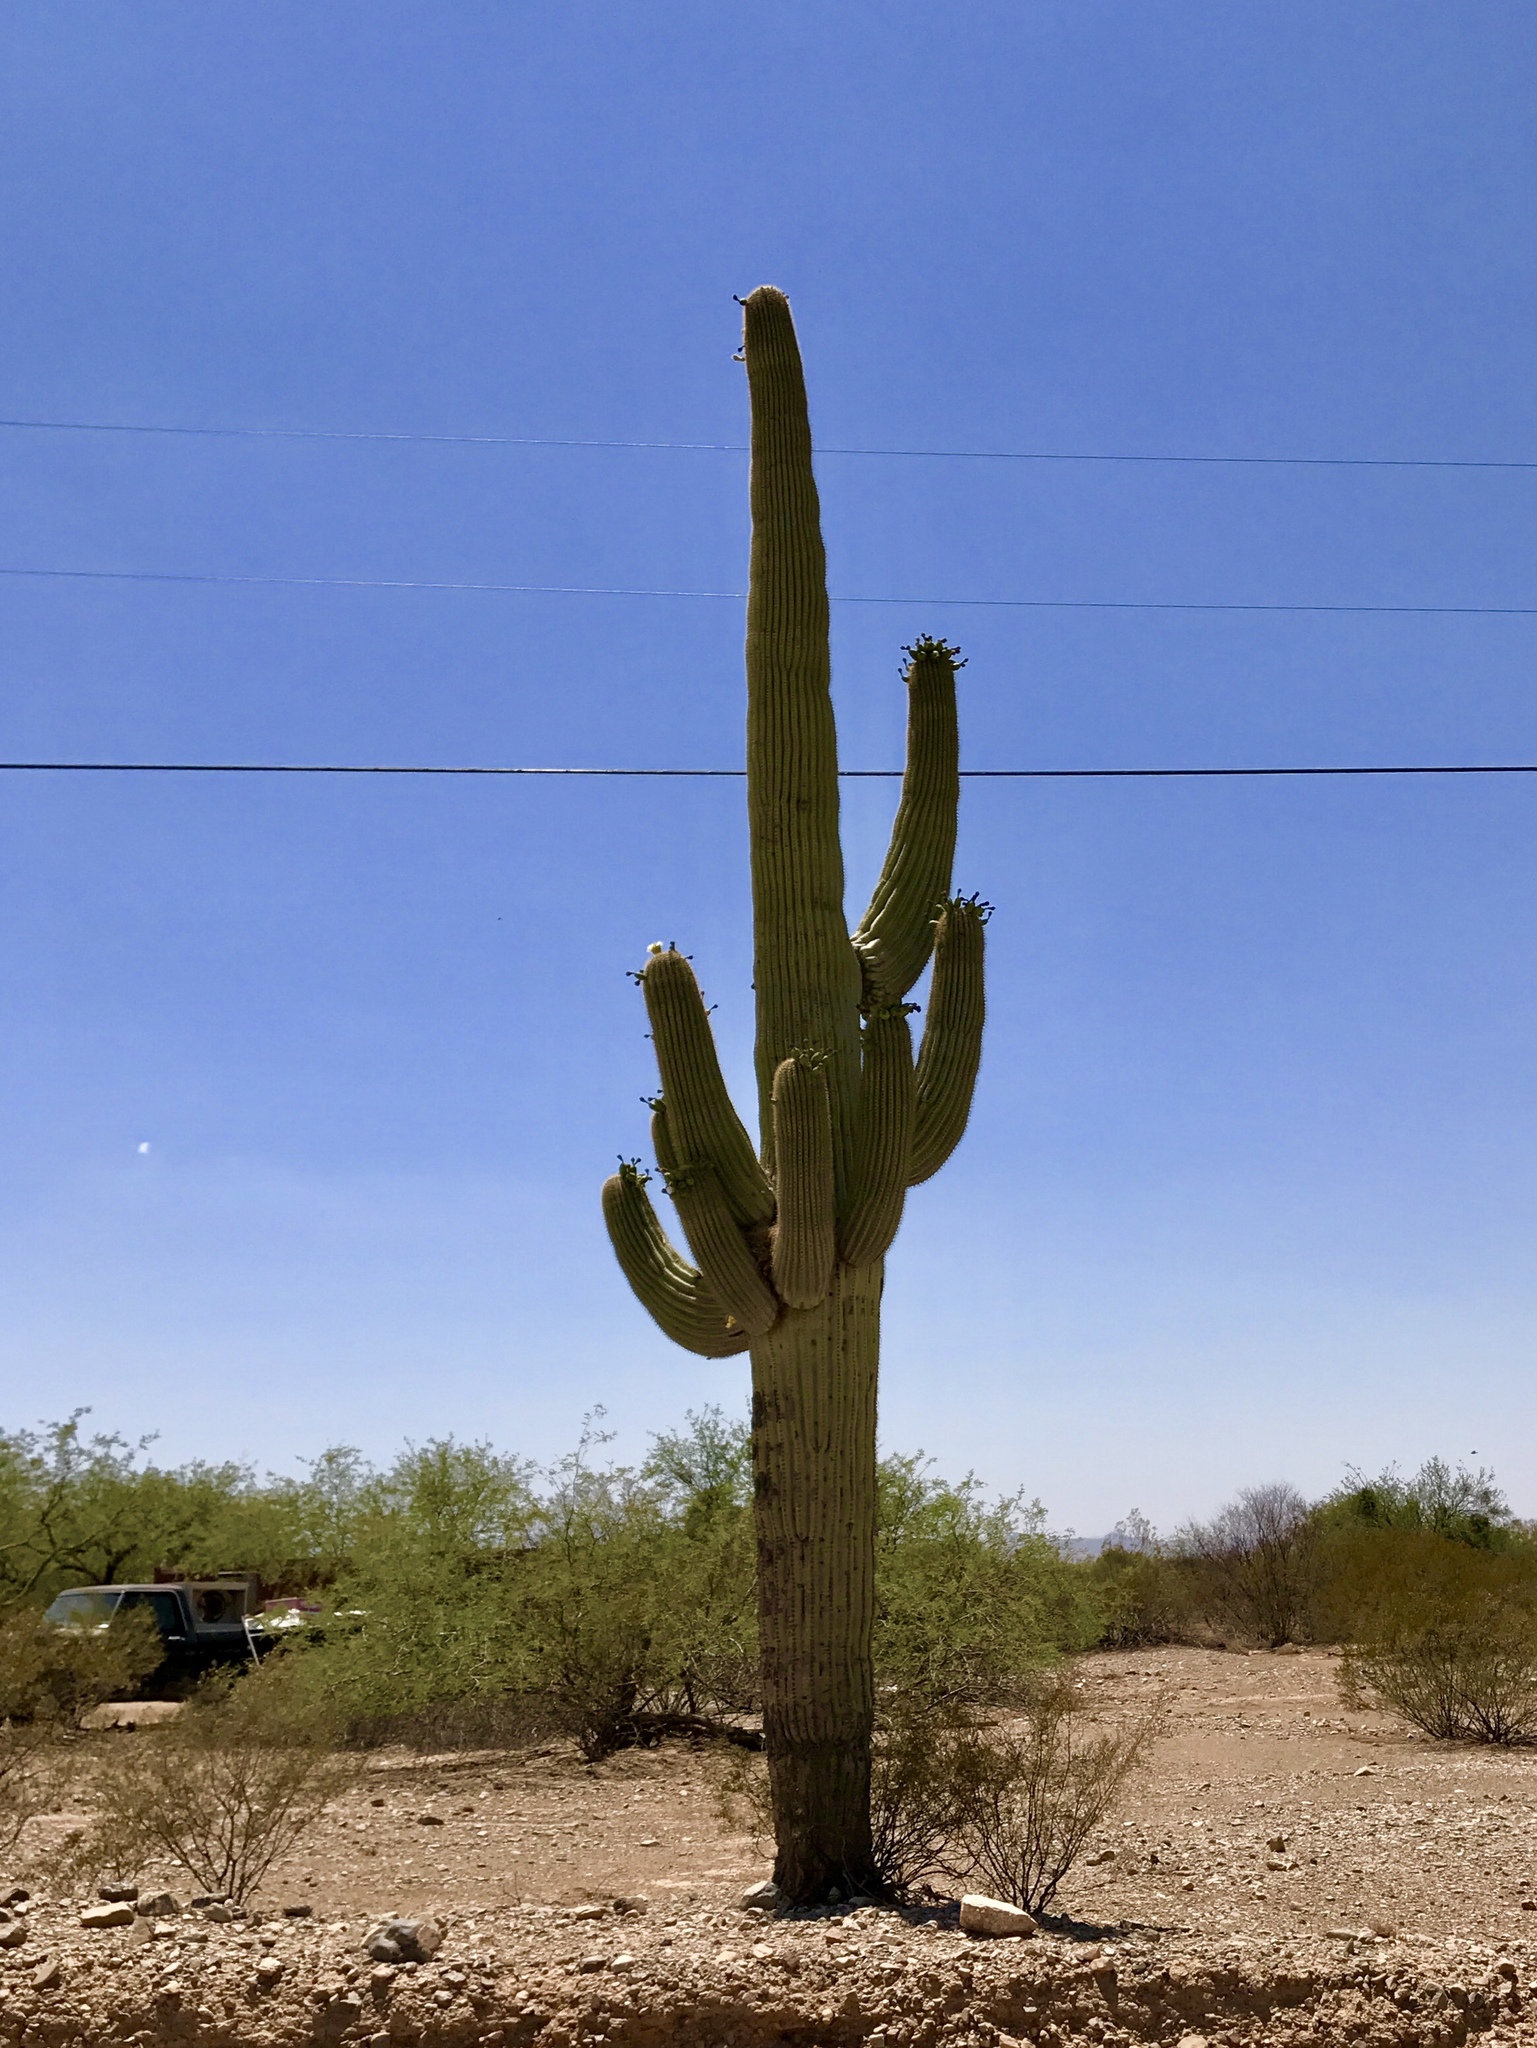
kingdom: Plantae
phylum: Tracheophyta
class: Magnoliopsida
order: Caryophyllales
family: Cactaceae
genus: Carnegiea
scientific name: Carnegiea gigantea
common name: Saguaro
